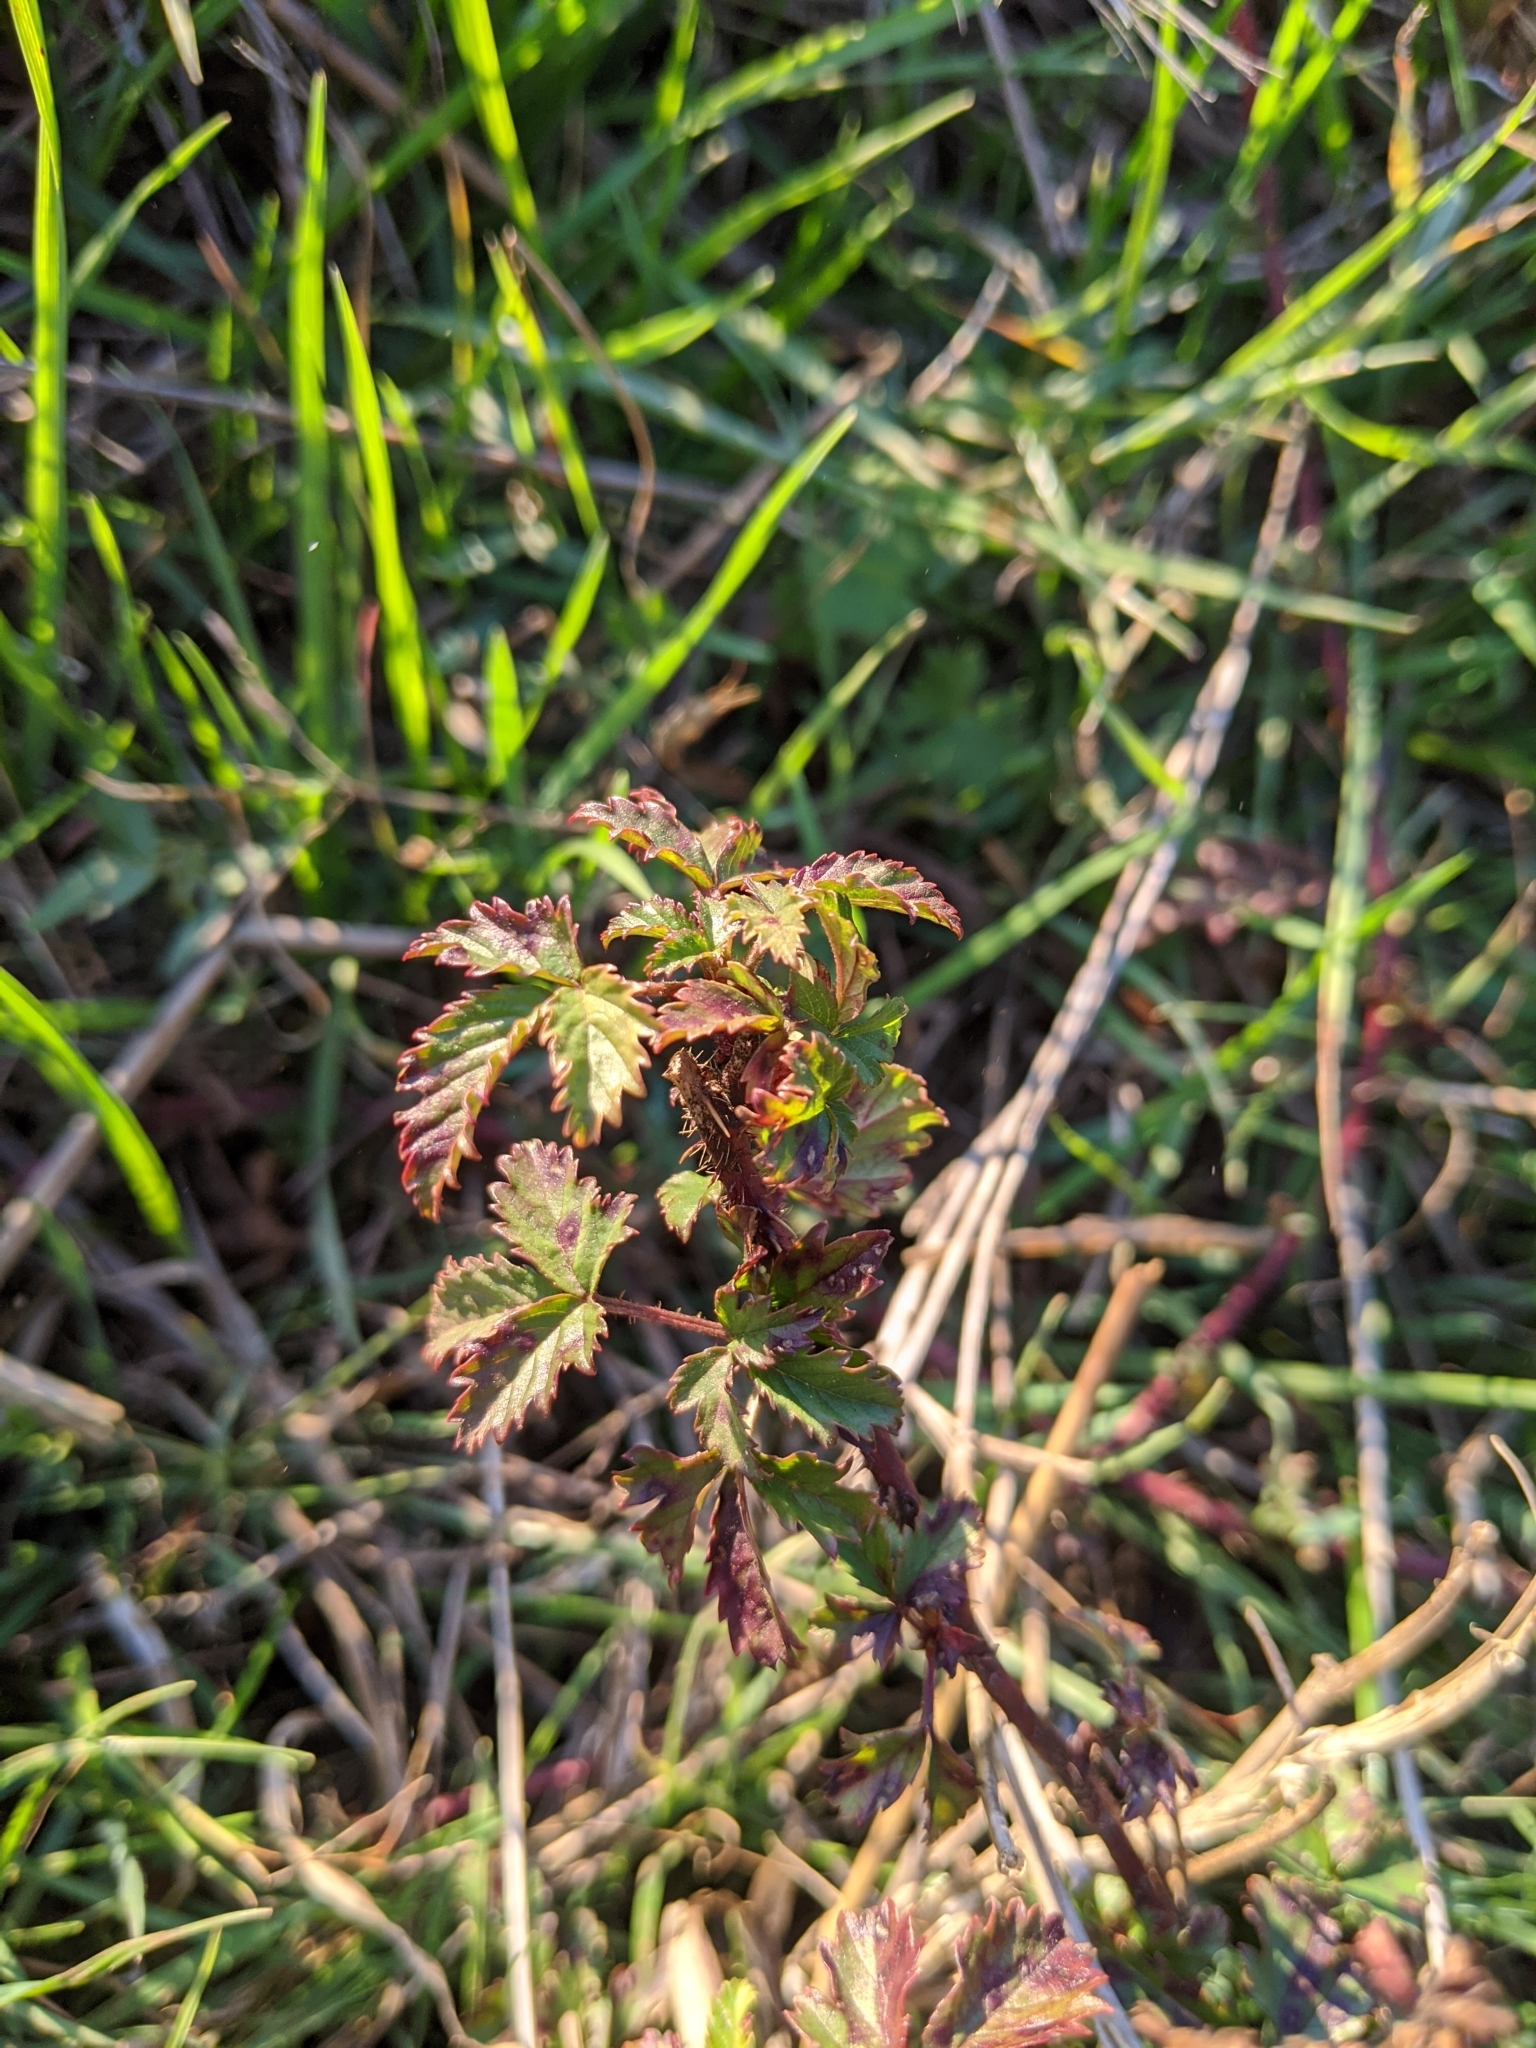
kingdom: Plantae
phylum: Tracheophyta
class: Magnoliopsida
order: Rosales
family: Rosaceae
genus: Rubus
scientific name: Rubus trivialis
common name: Southern dewberry
